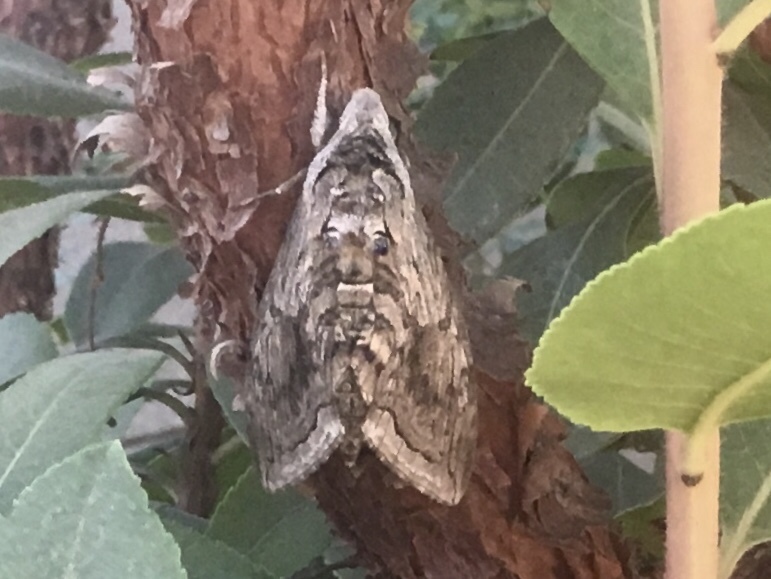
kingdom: Animalia
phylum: Arthropoda
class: Insecta
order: Lepidoptera
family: Sphingidae
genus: Manduca
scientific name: Manduca quinquemaculatus
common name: Five-spotted hawk-moth
